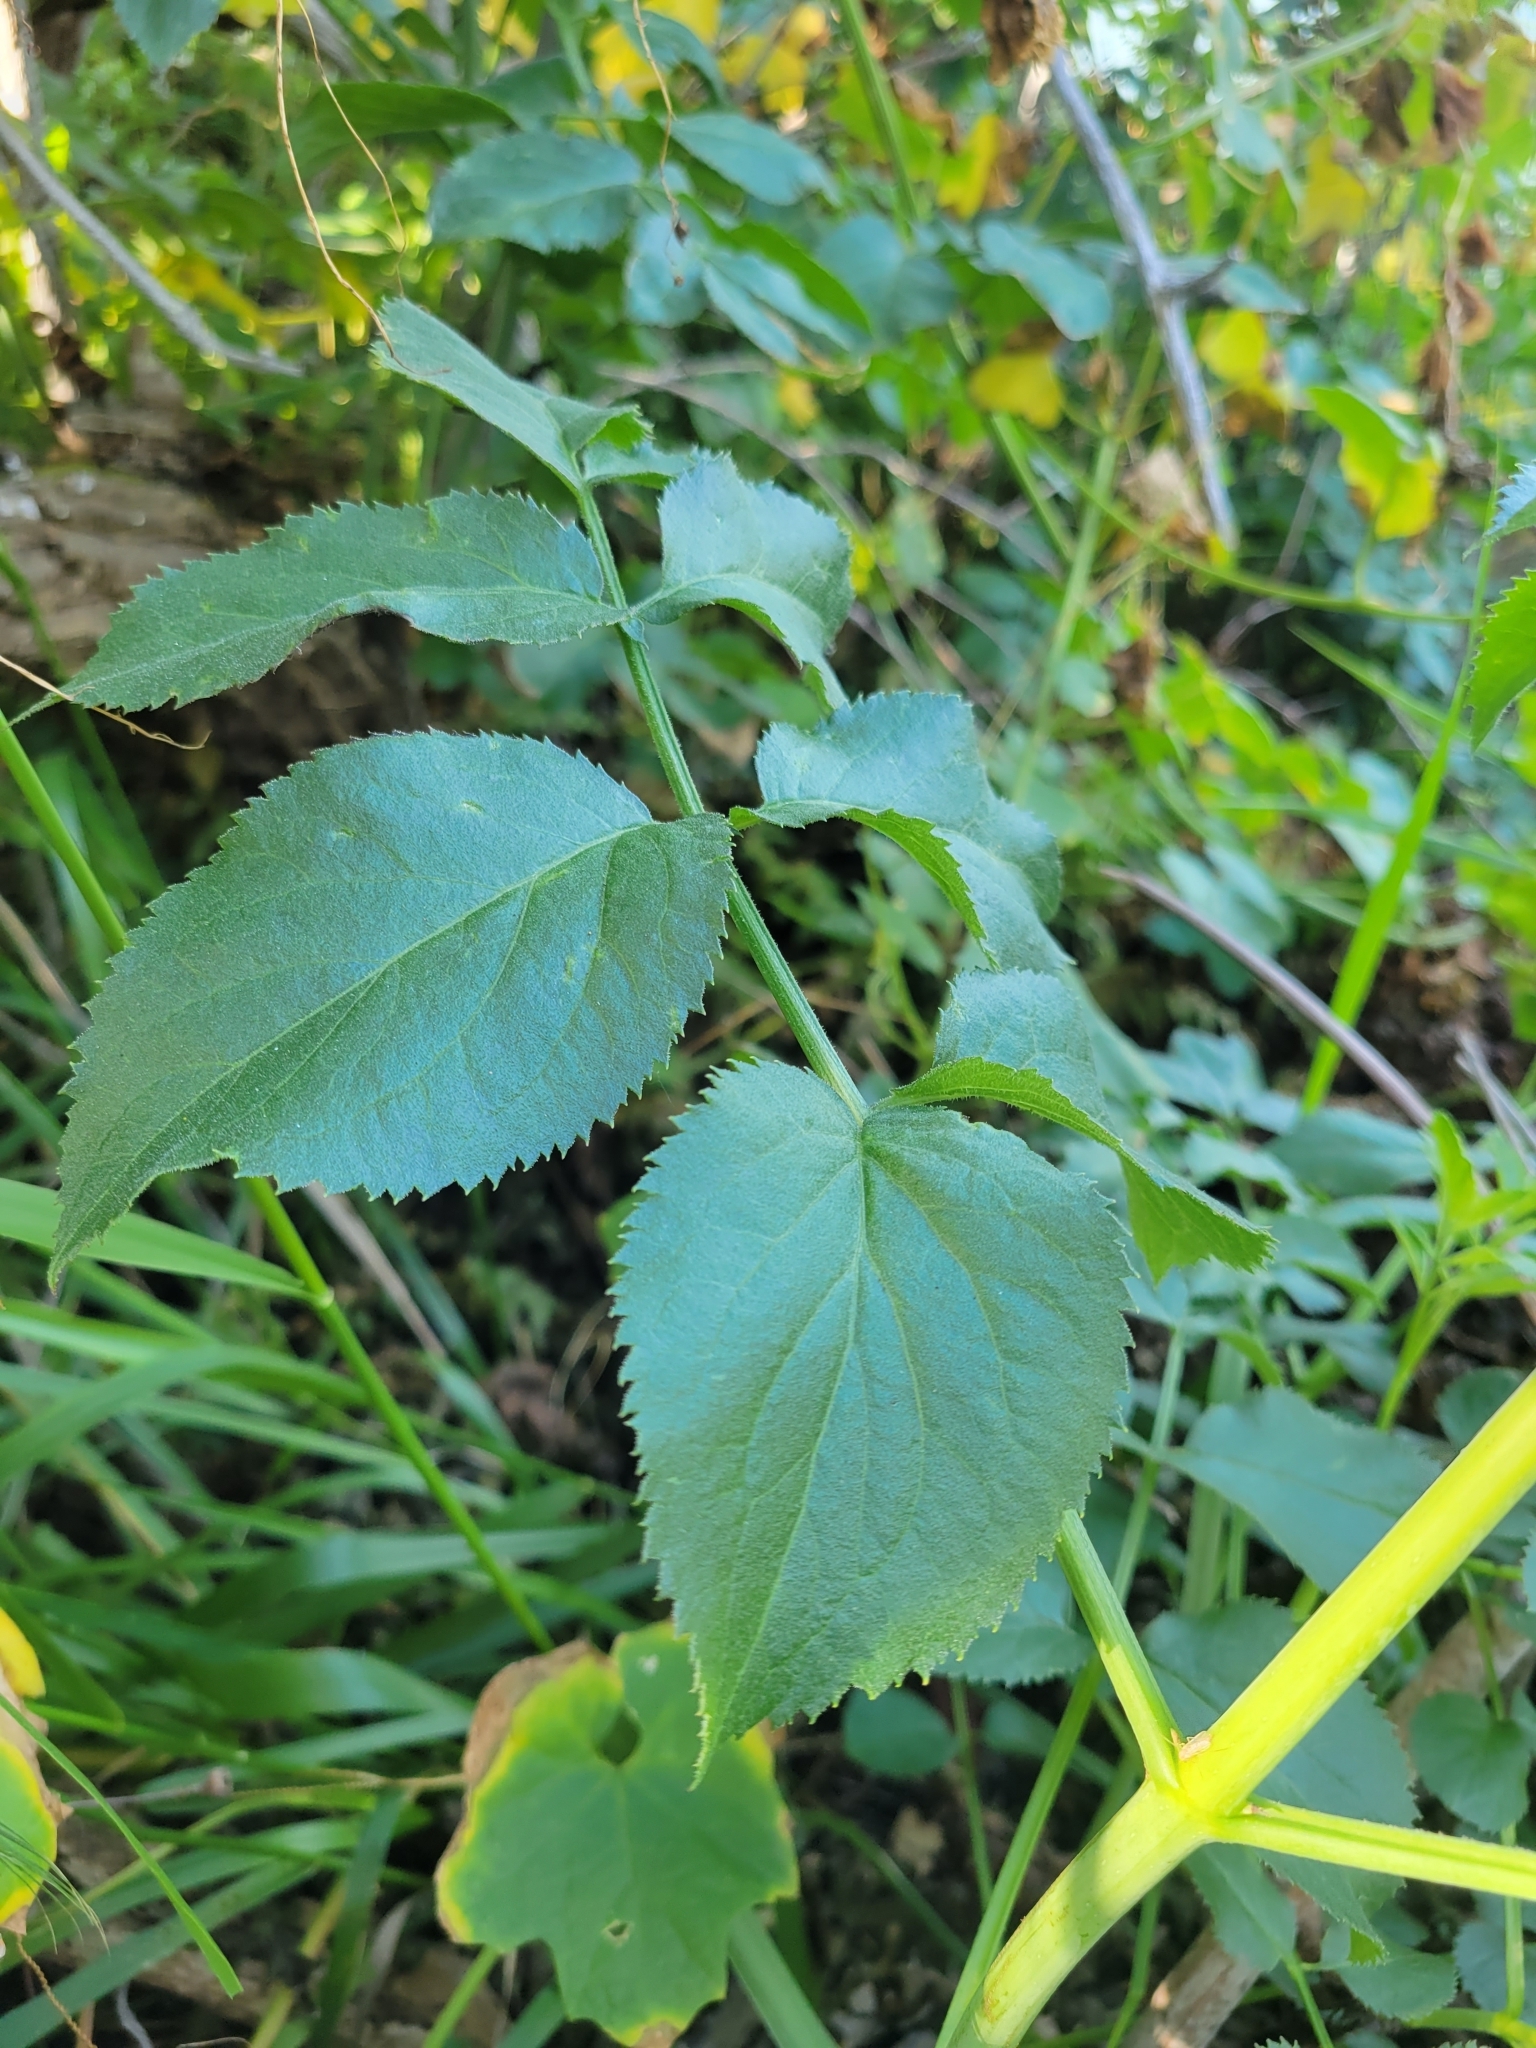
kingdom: Plantae
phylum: Tracheophyta
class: Magnoliopsida
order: Dipsacales
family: Viburnaceae
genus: Sambucus
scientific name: Sambucus cerulea
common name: Blue elder
